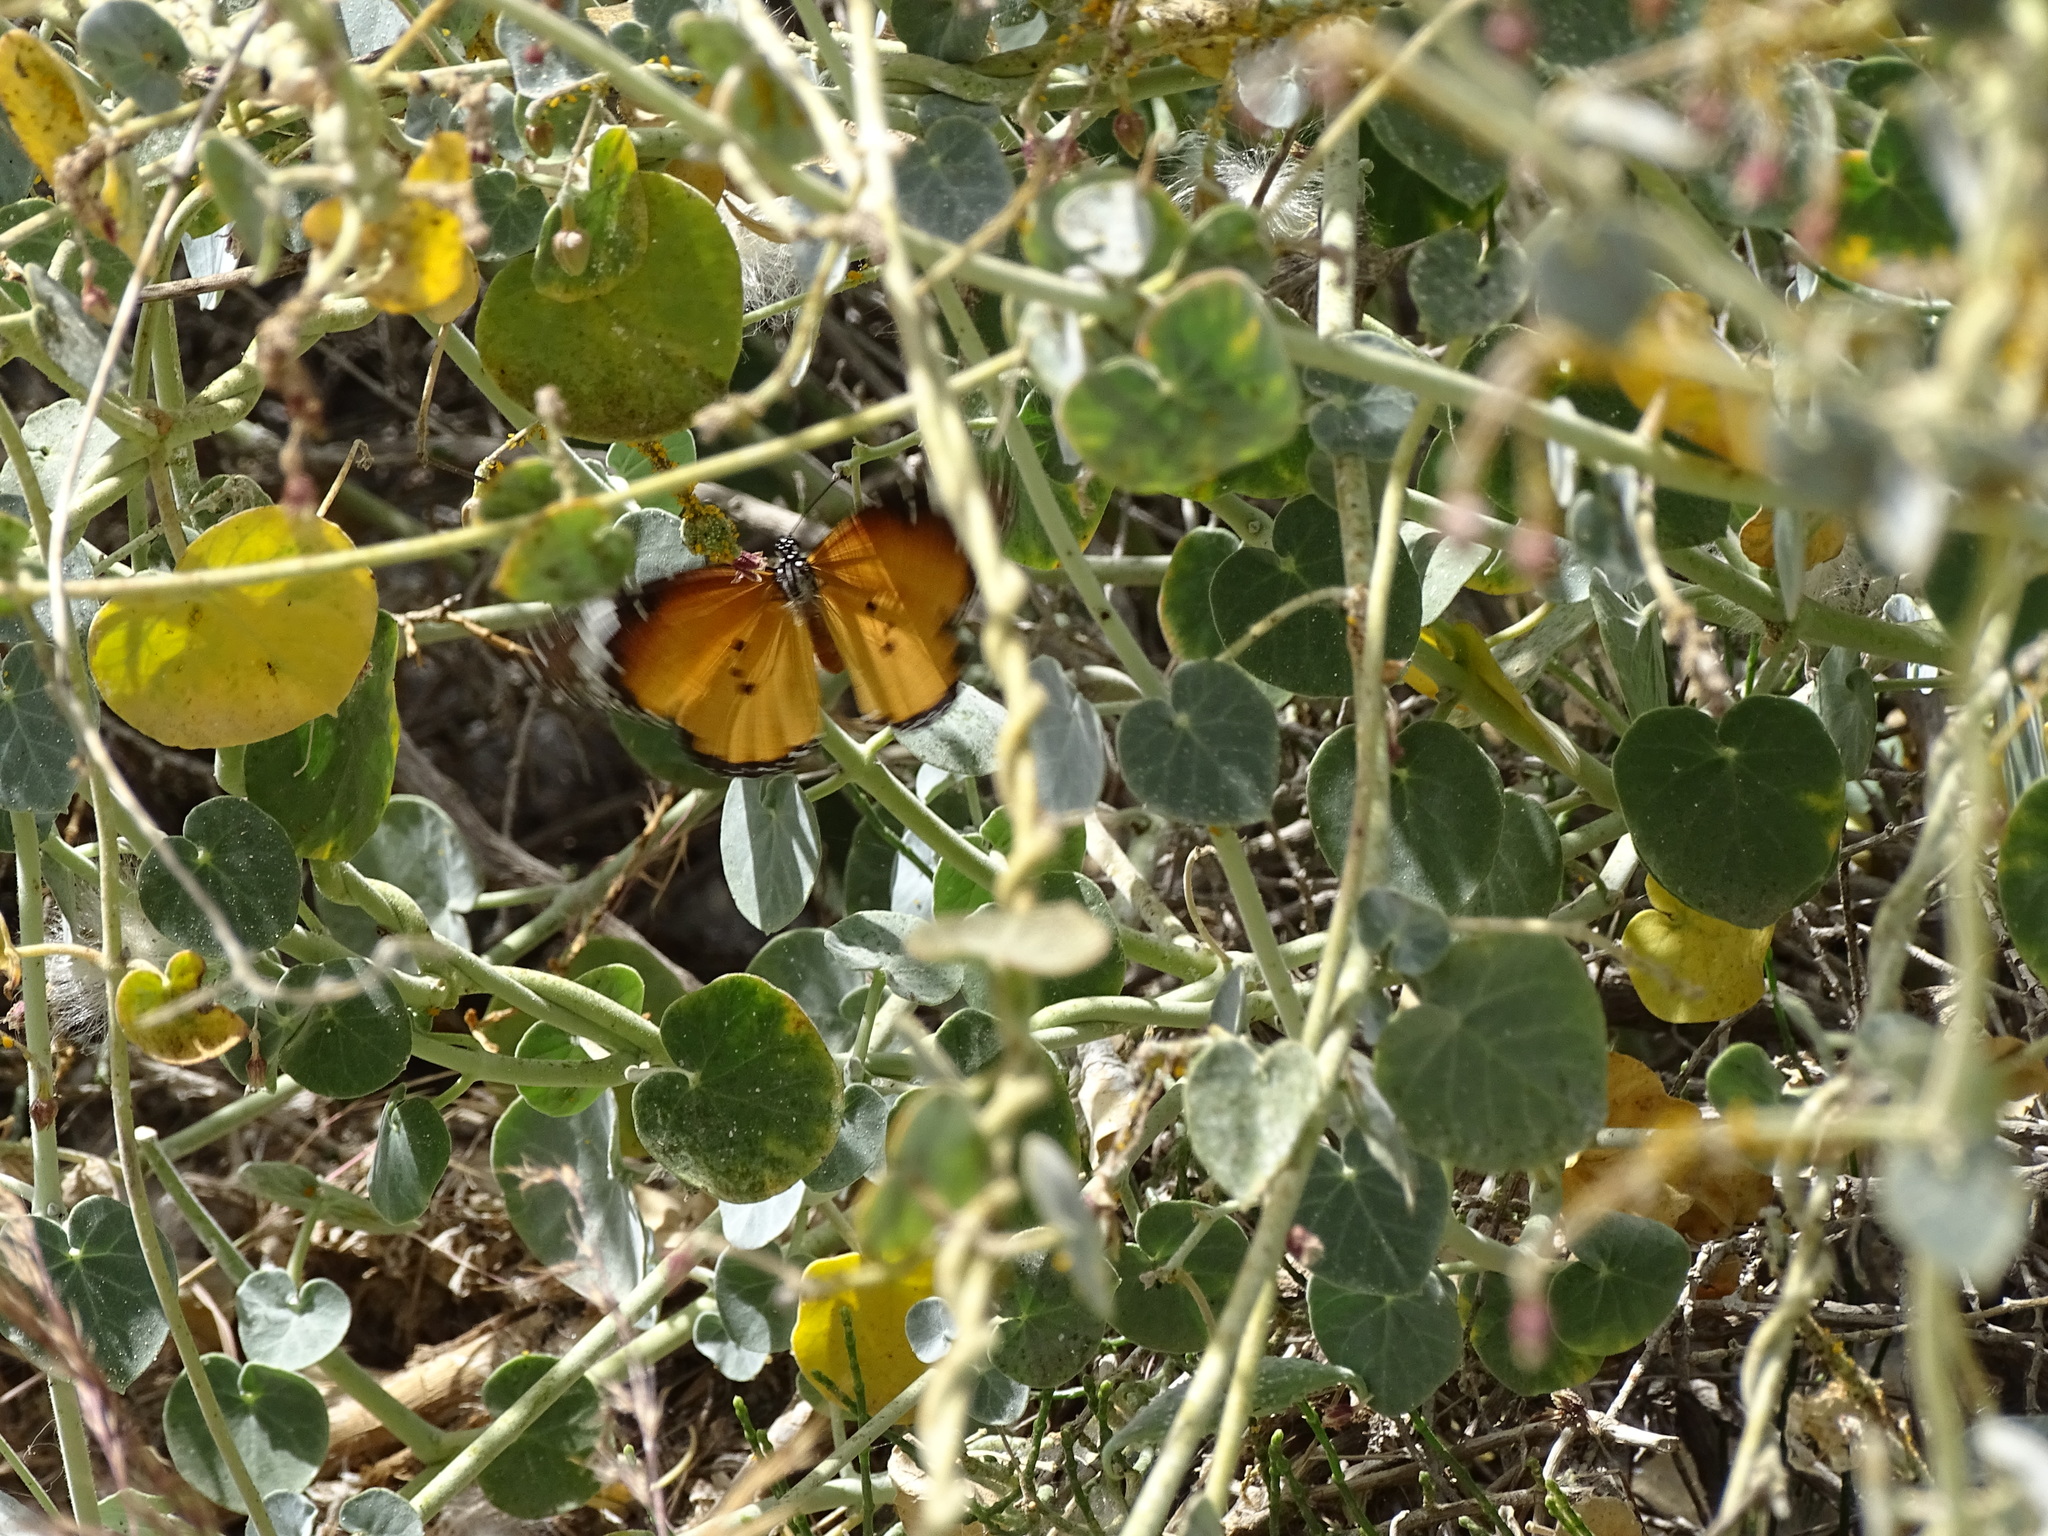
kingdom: Animalia
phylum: Arthropoda
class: Insecta
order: Lepidoptera
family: Nymphalidae
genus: Danaus
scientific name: Danaus chrysippus
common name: Plain tiger
